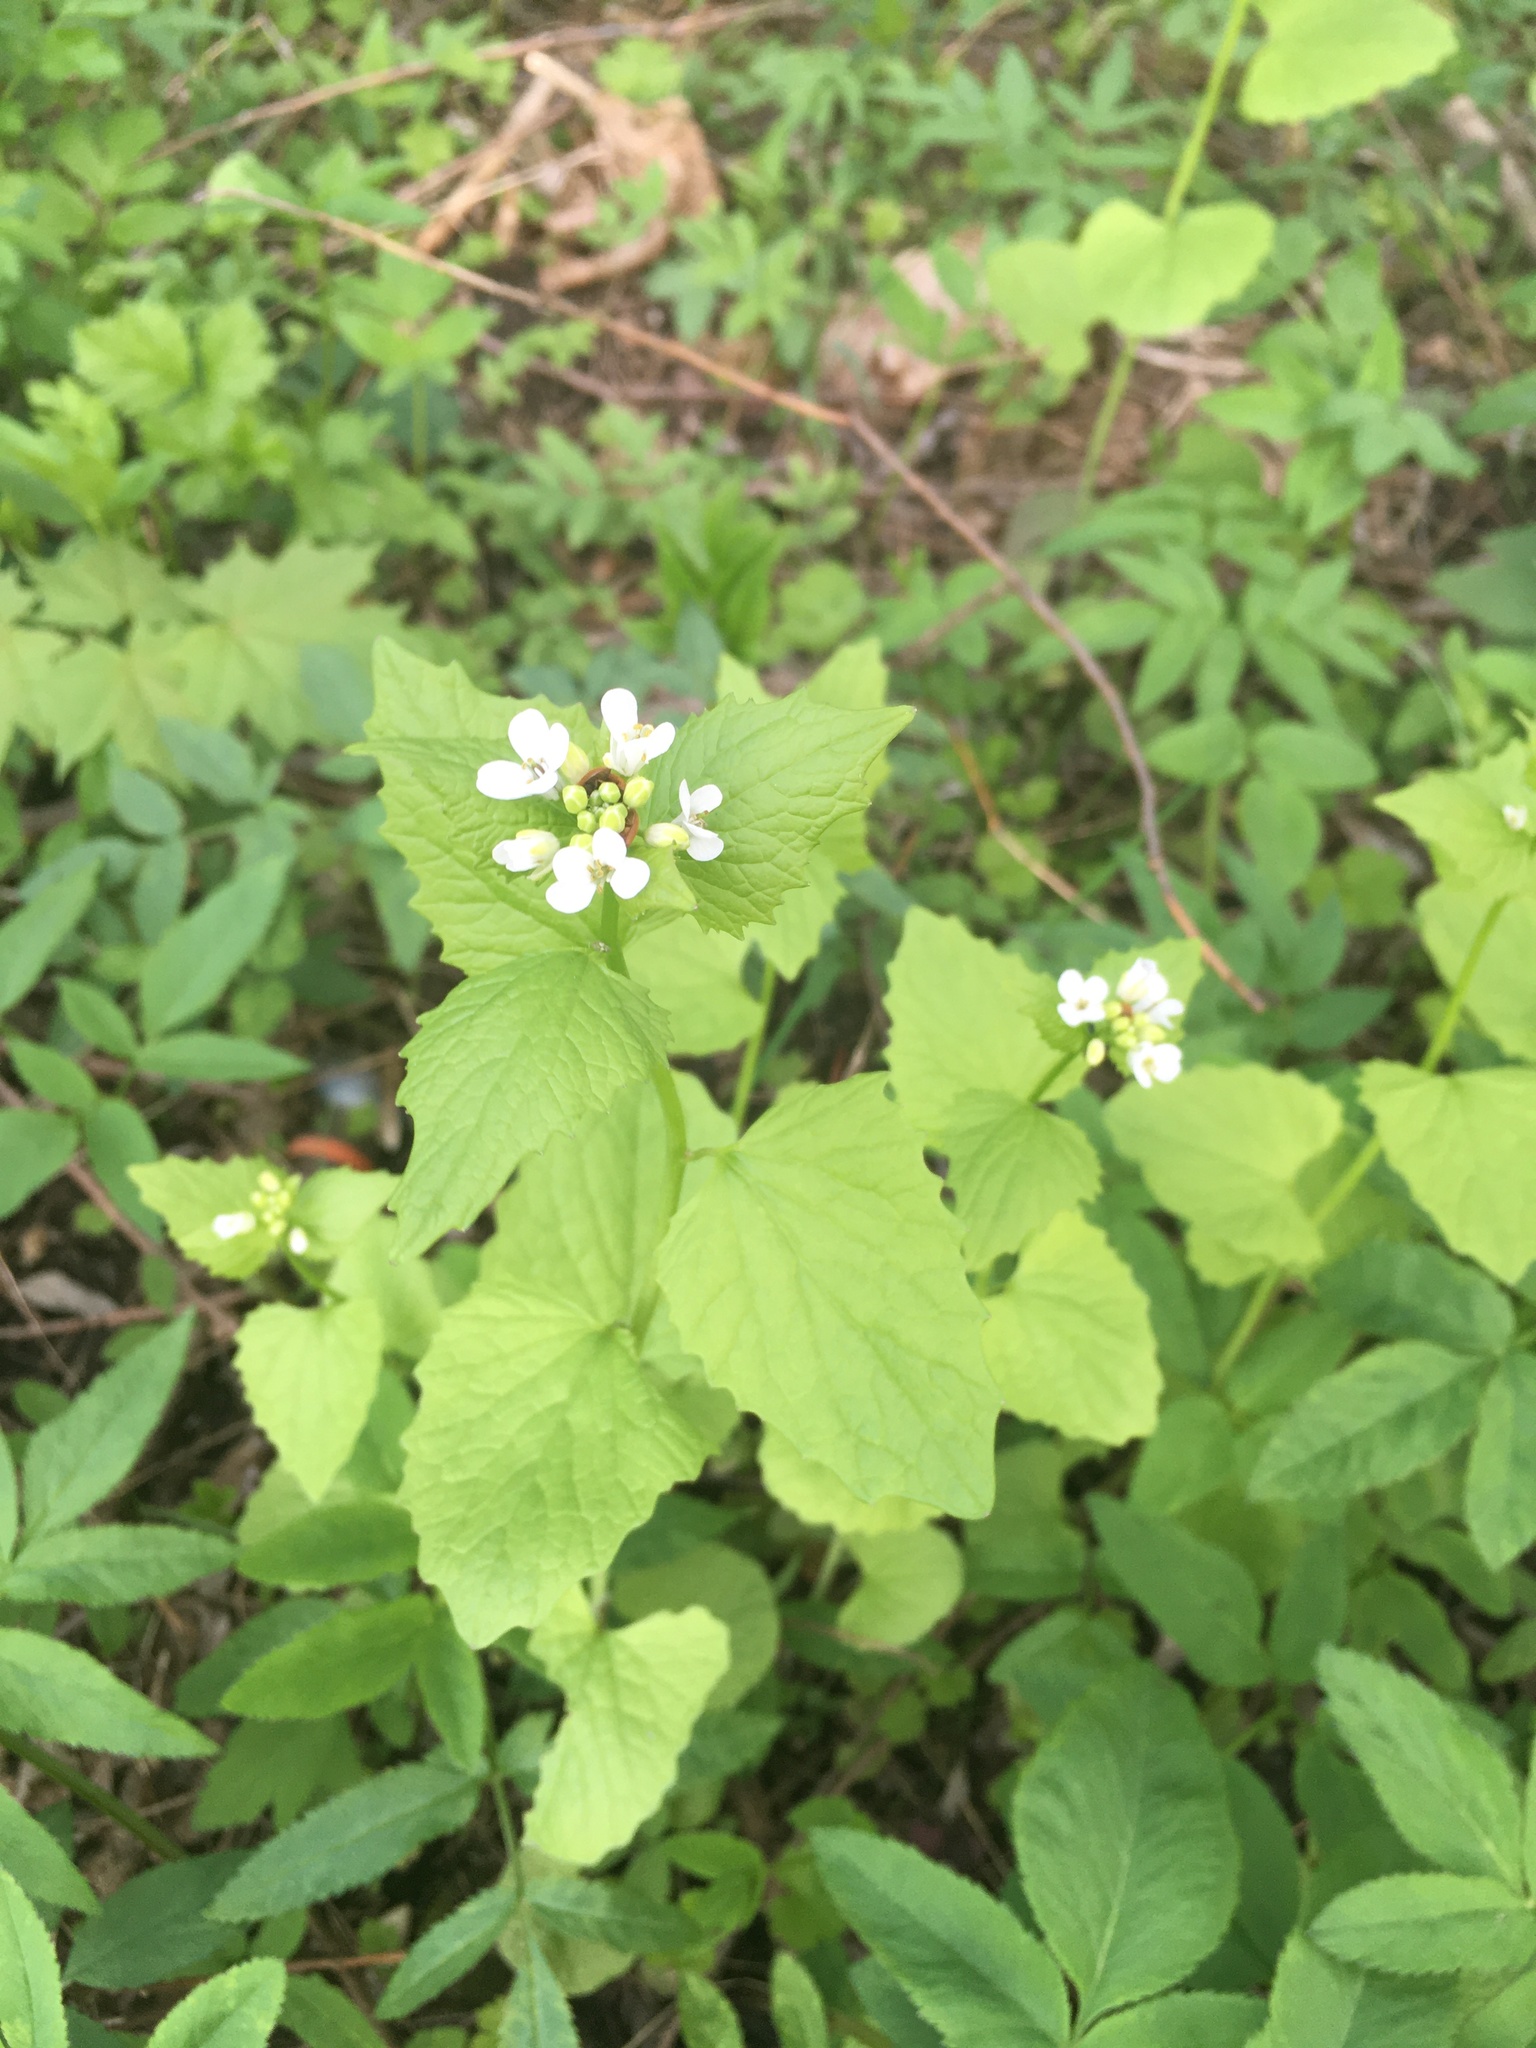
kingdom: Plantae
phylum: Tracheophyta
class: Magnoliopsida
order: Brassicales
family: Brassicaceae
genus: Alliaria
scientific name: Alliaria petiolata
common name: Garlic mustard
